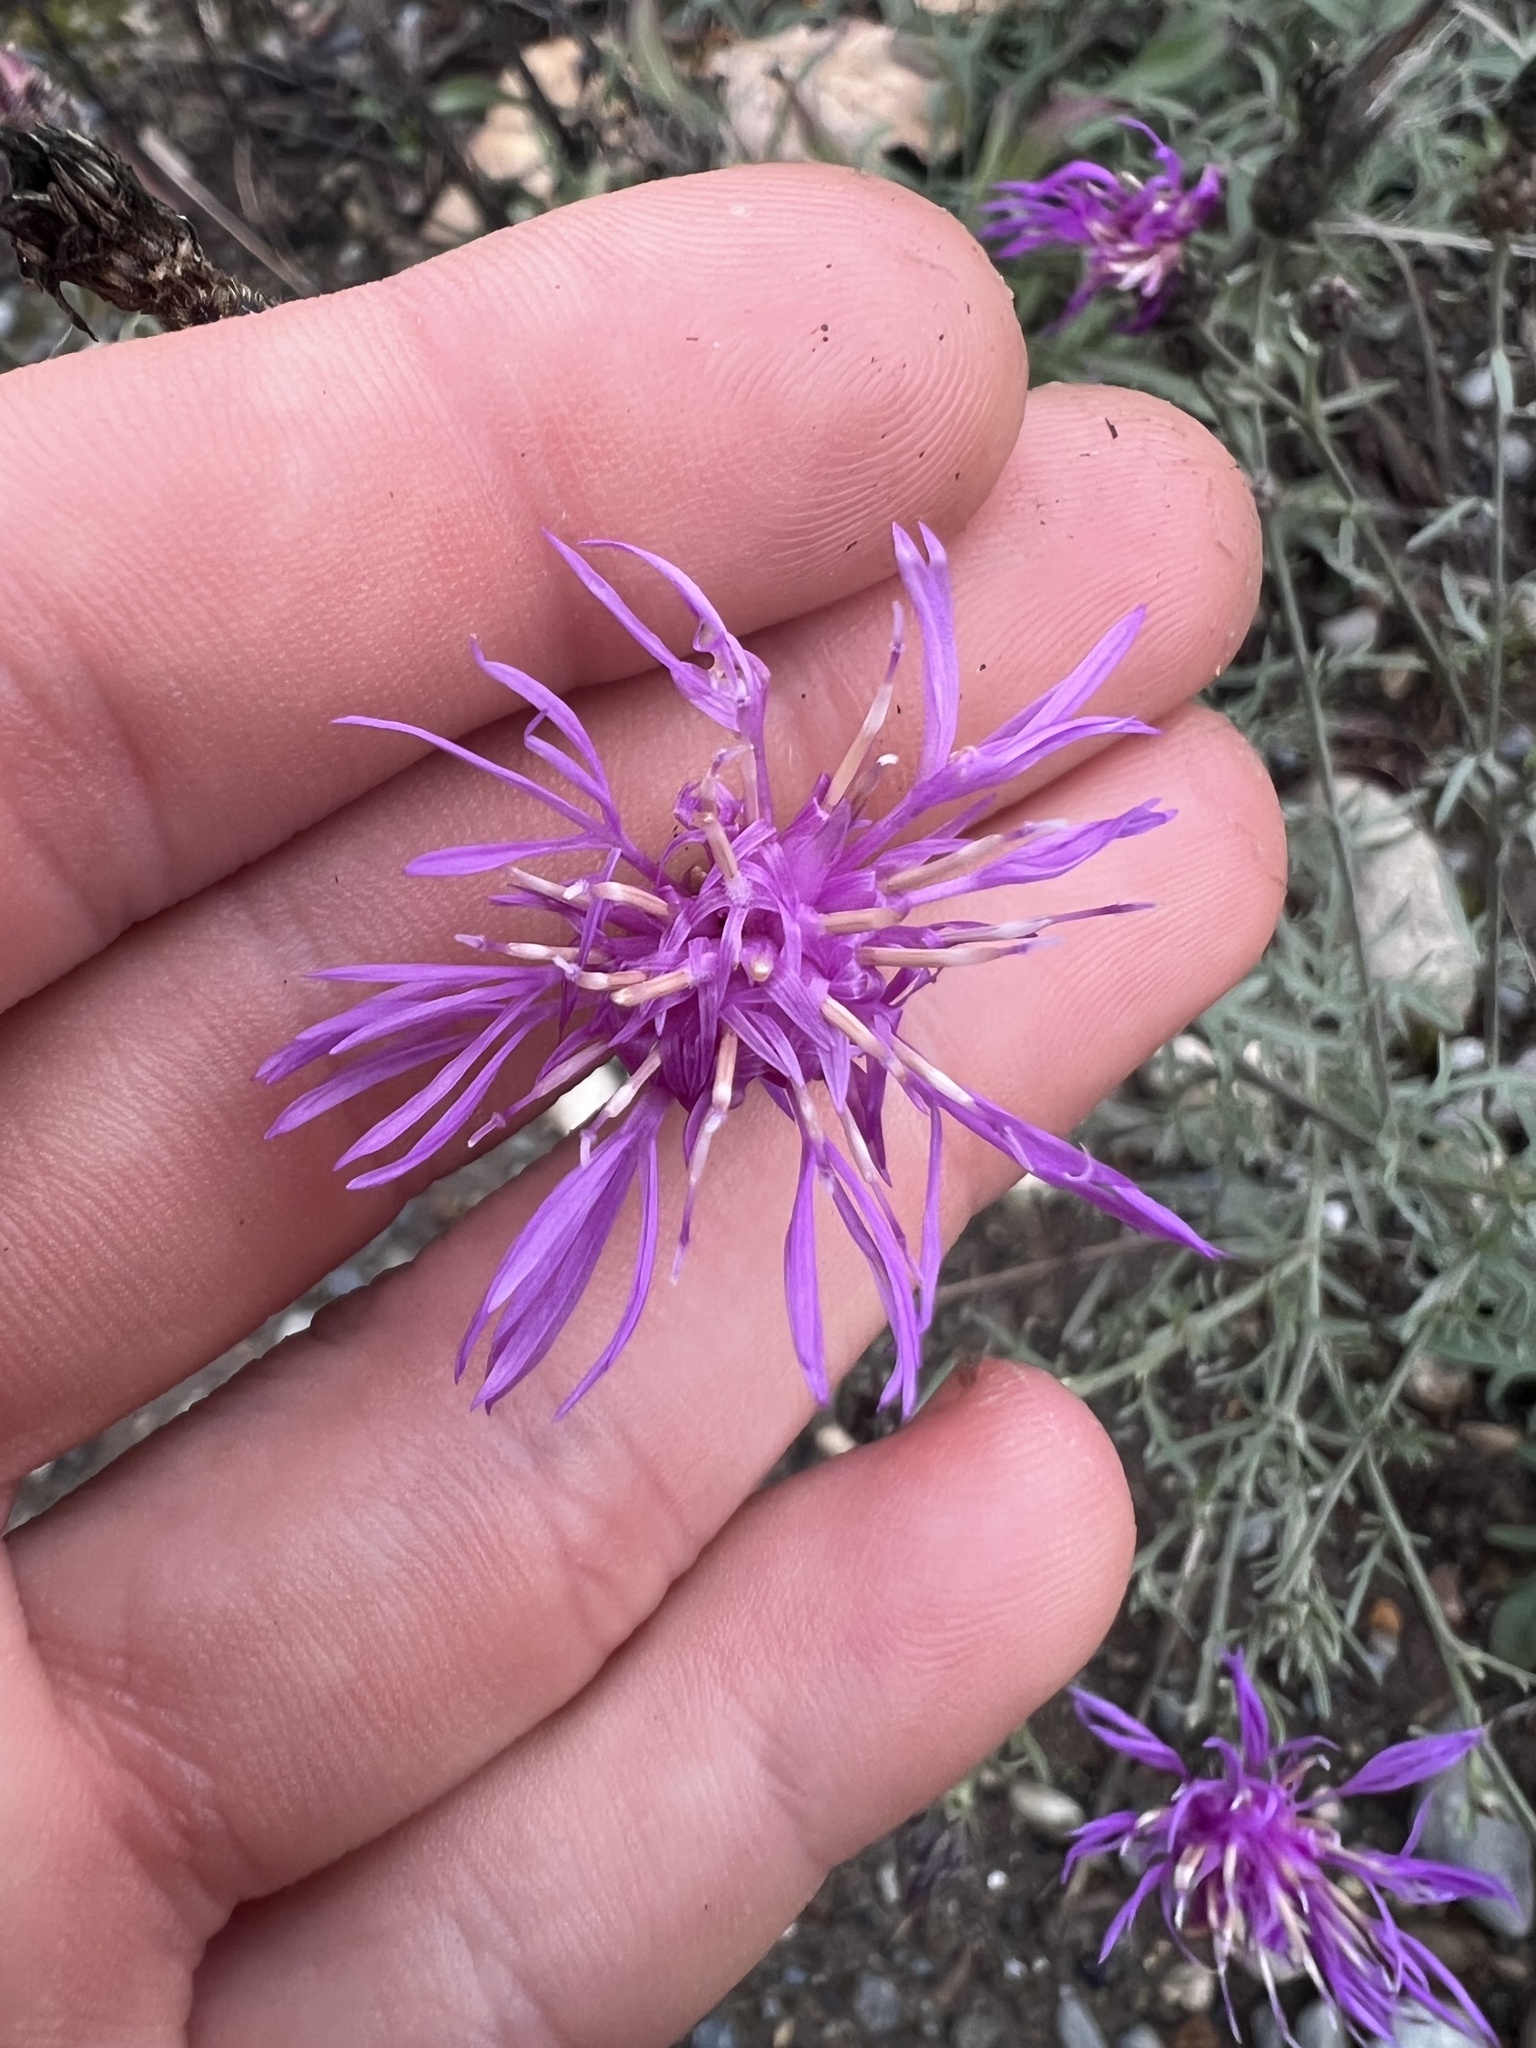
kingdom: Plantae
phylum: Tracheophyta
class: Magnoliopsida
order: Asterales
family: Asteraceae
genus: Centaurea
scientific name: Centaurea stoebe
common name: Spotted knapweed
